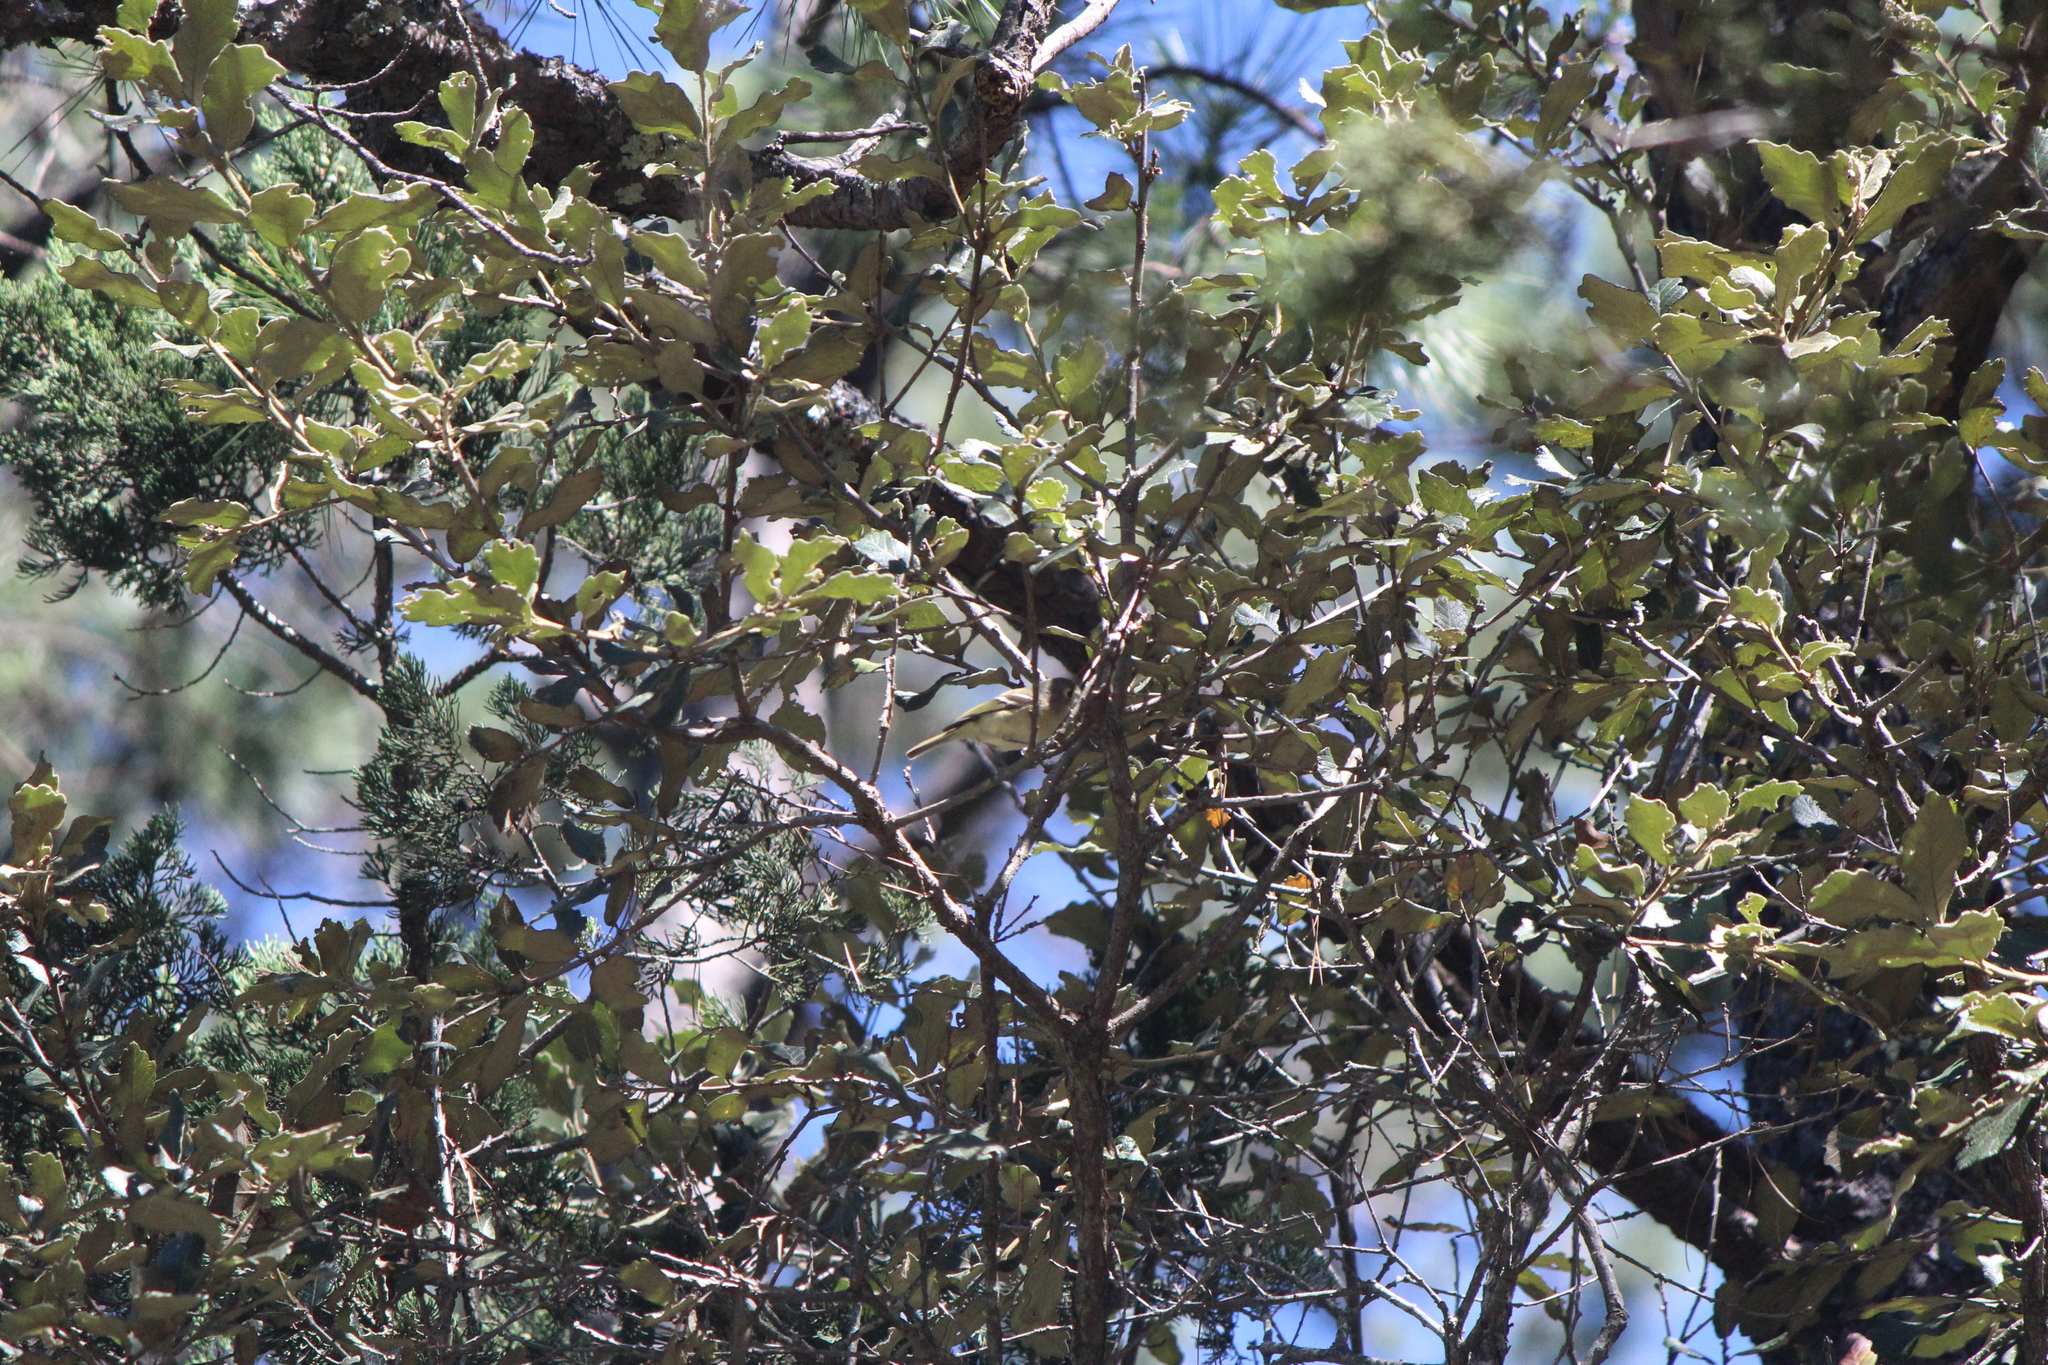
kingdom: Animalia
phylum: Chordata
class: Aves
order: Passeriformes
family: Regulidae
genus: Regulus
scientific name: Regulus calendula
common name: Ruby-crowned kinglet
